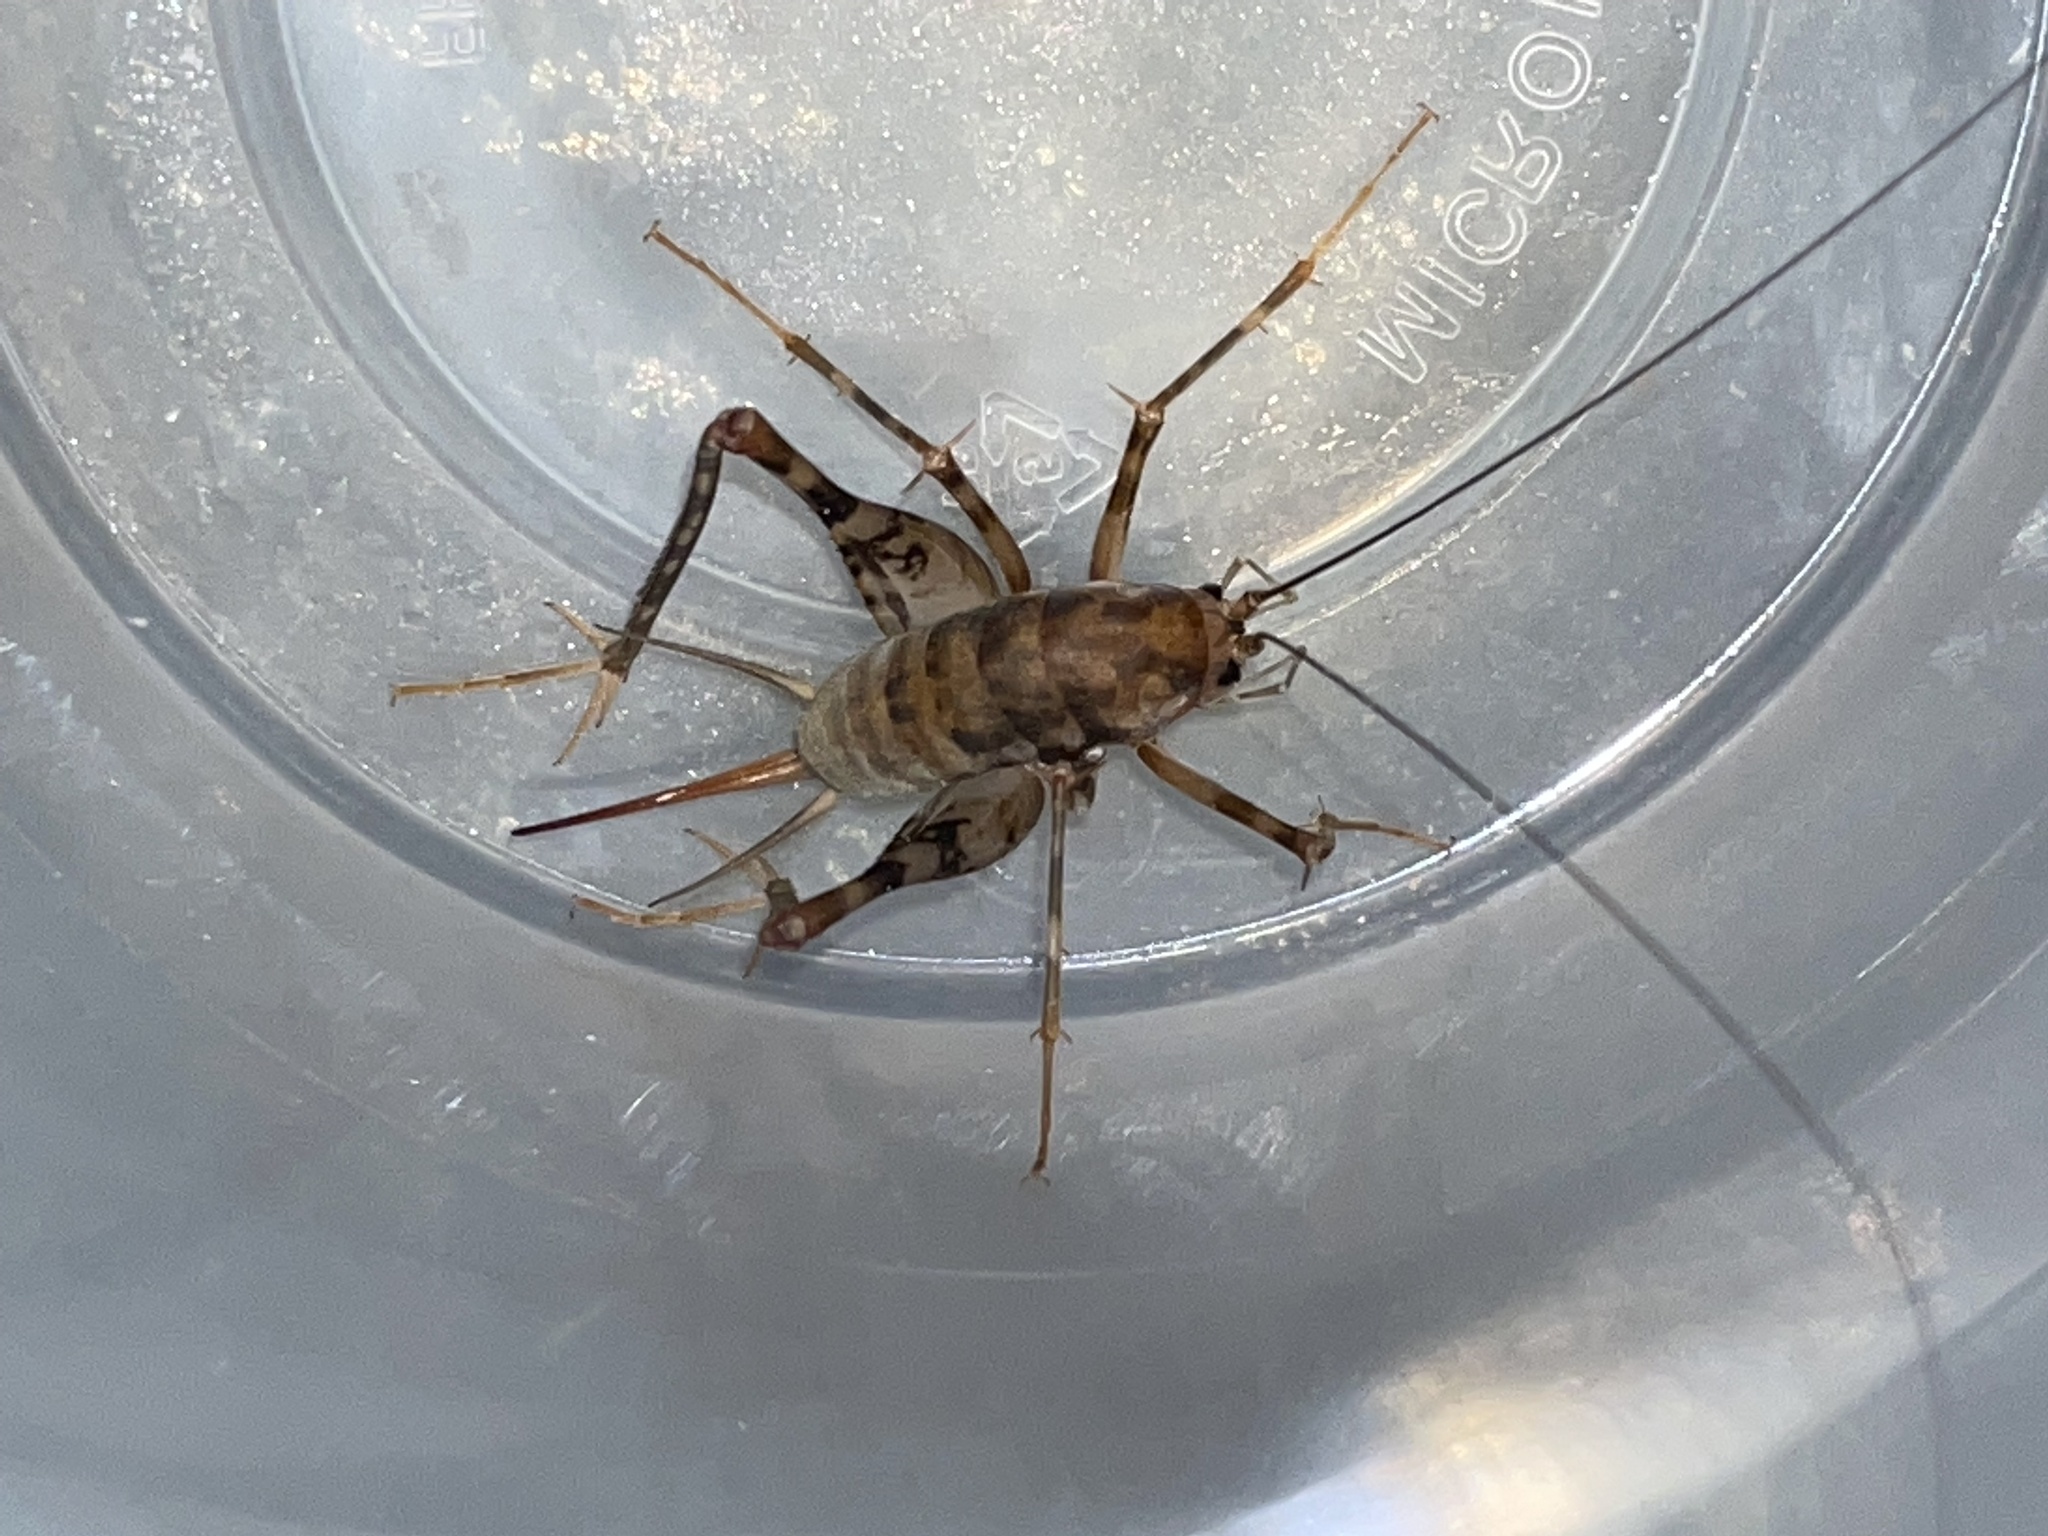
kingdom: Animalia
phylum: Arthropoda
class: Insecta
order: Orthoptera
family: Rhaphidophoridae
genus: Tachycines
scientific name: Tachycines asynamorus
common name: Greenhouse camel cricket
